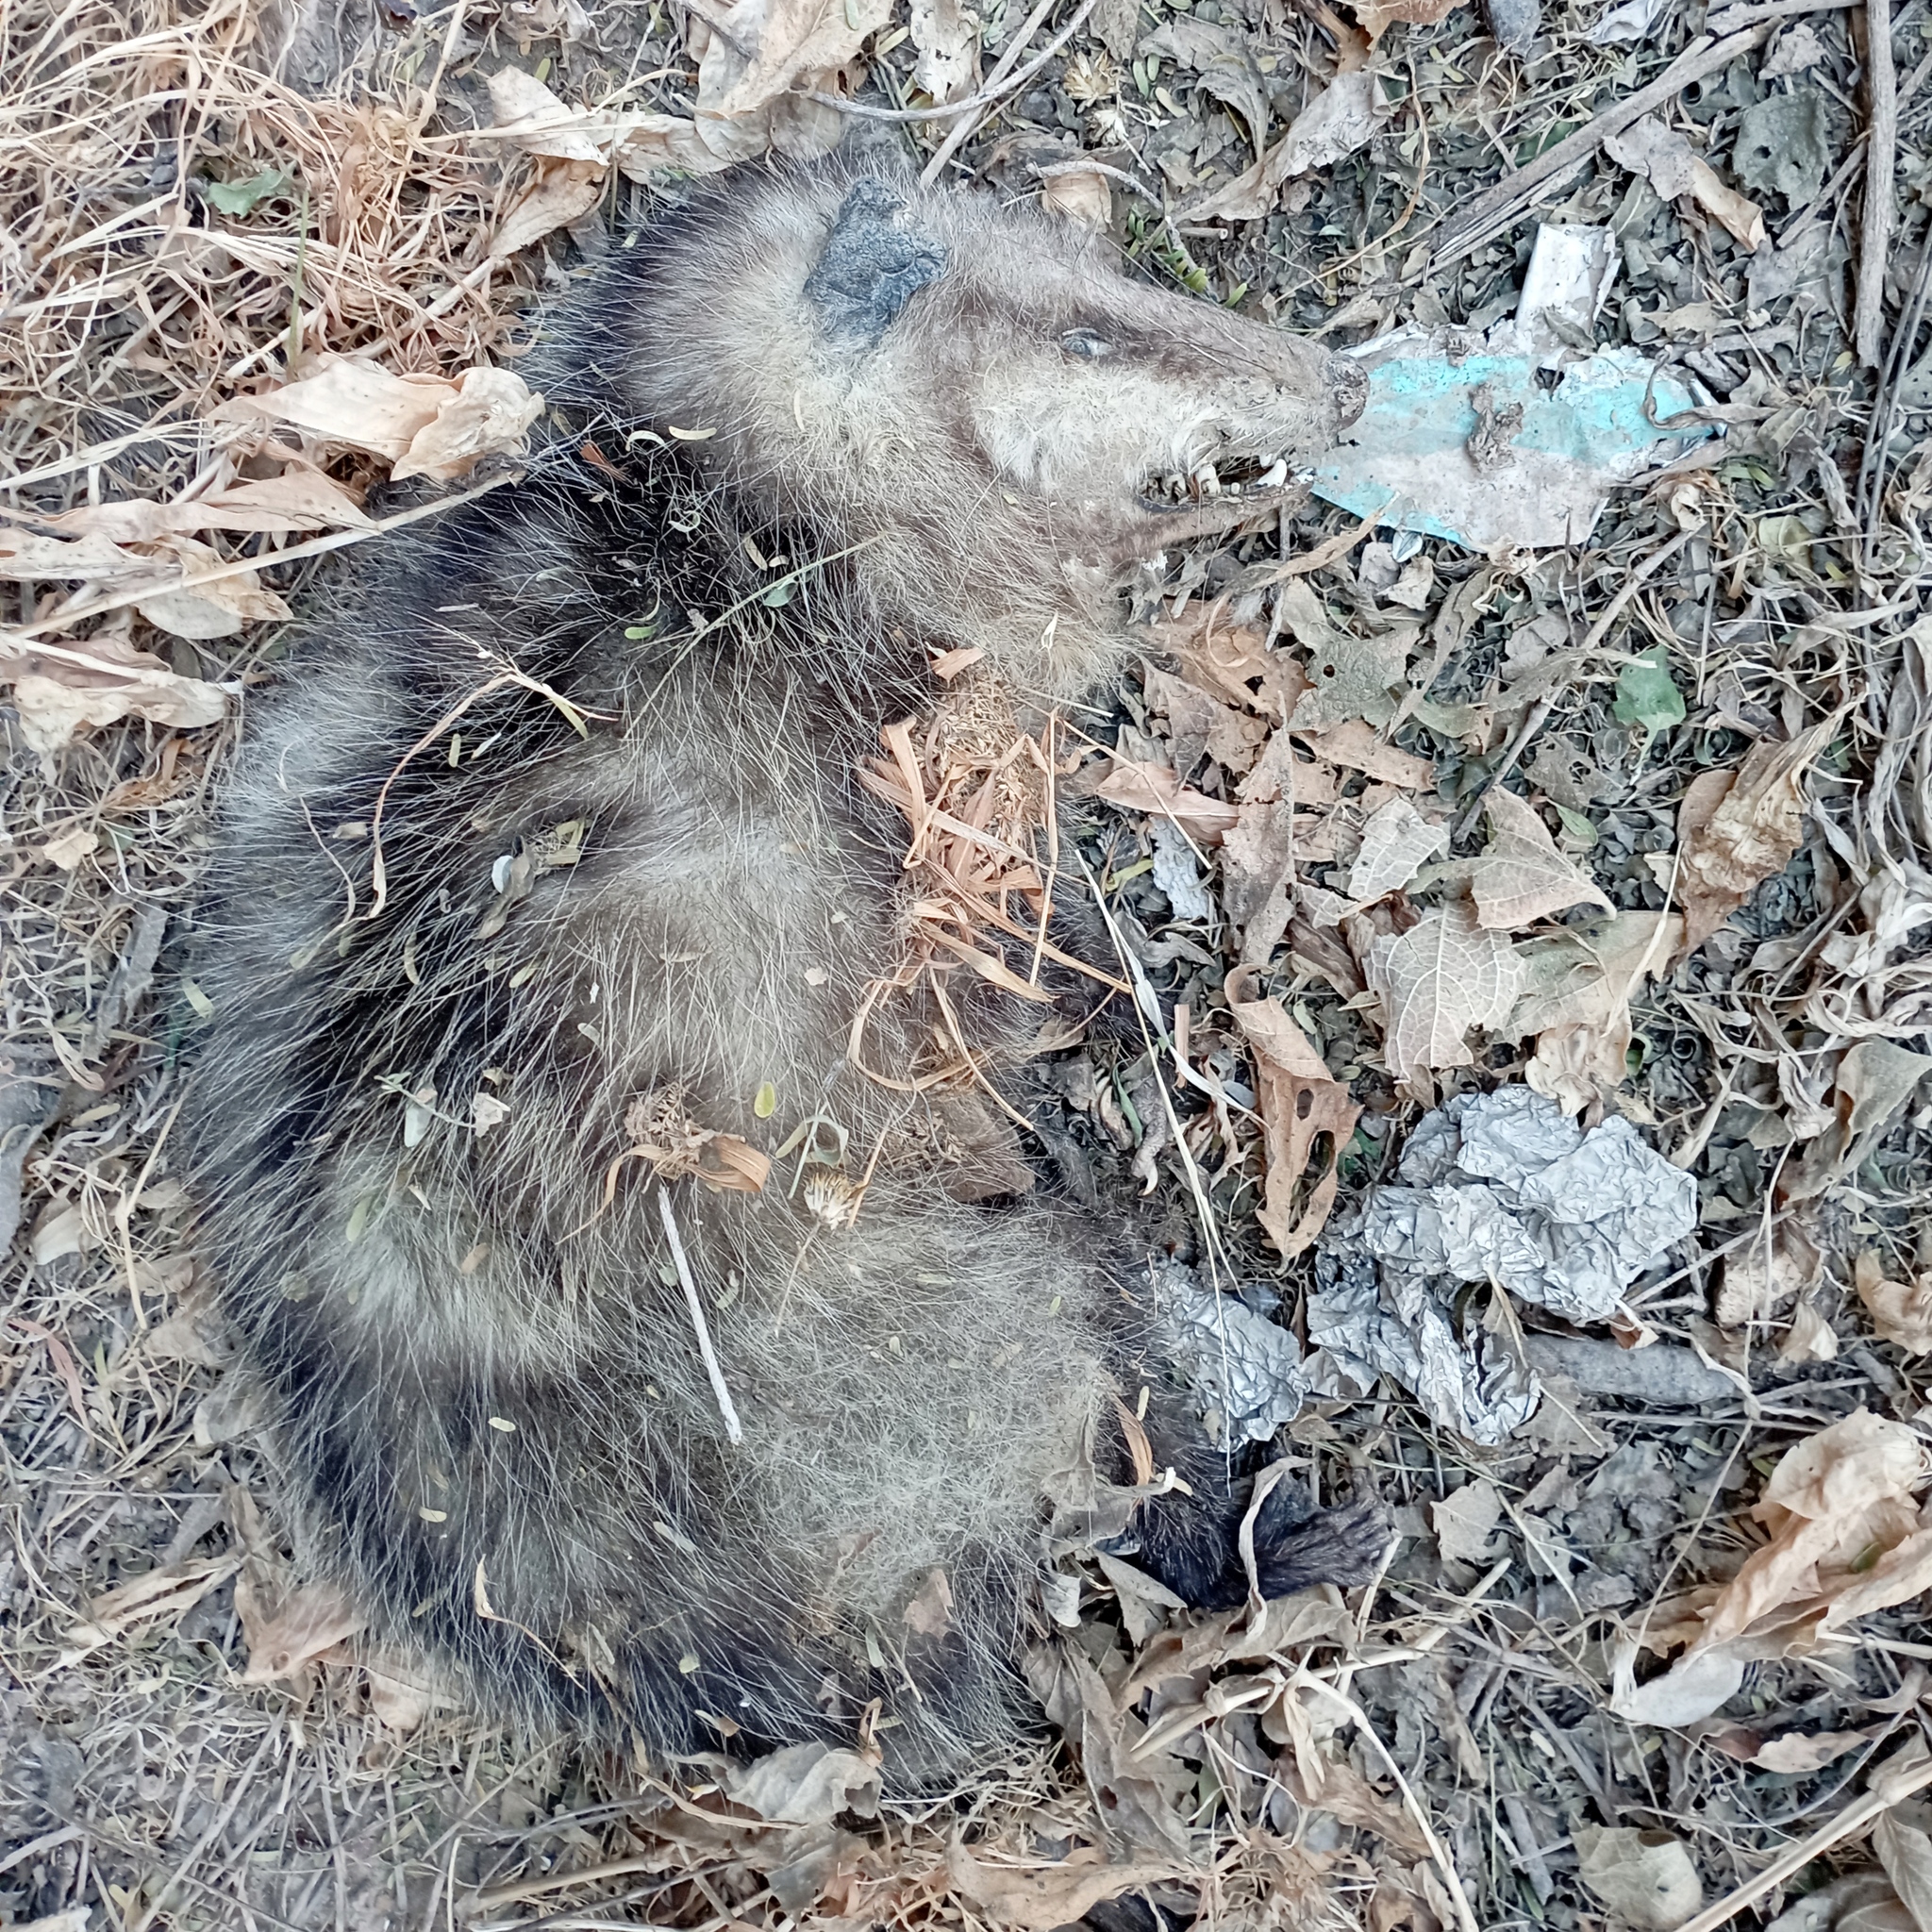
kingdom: Animalia
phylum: Chordata
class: Mammalia
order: Didelphimorphia
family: Didelphidae
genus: Didelphis
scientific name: Didelphis virginiana
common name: Virginia opossum
